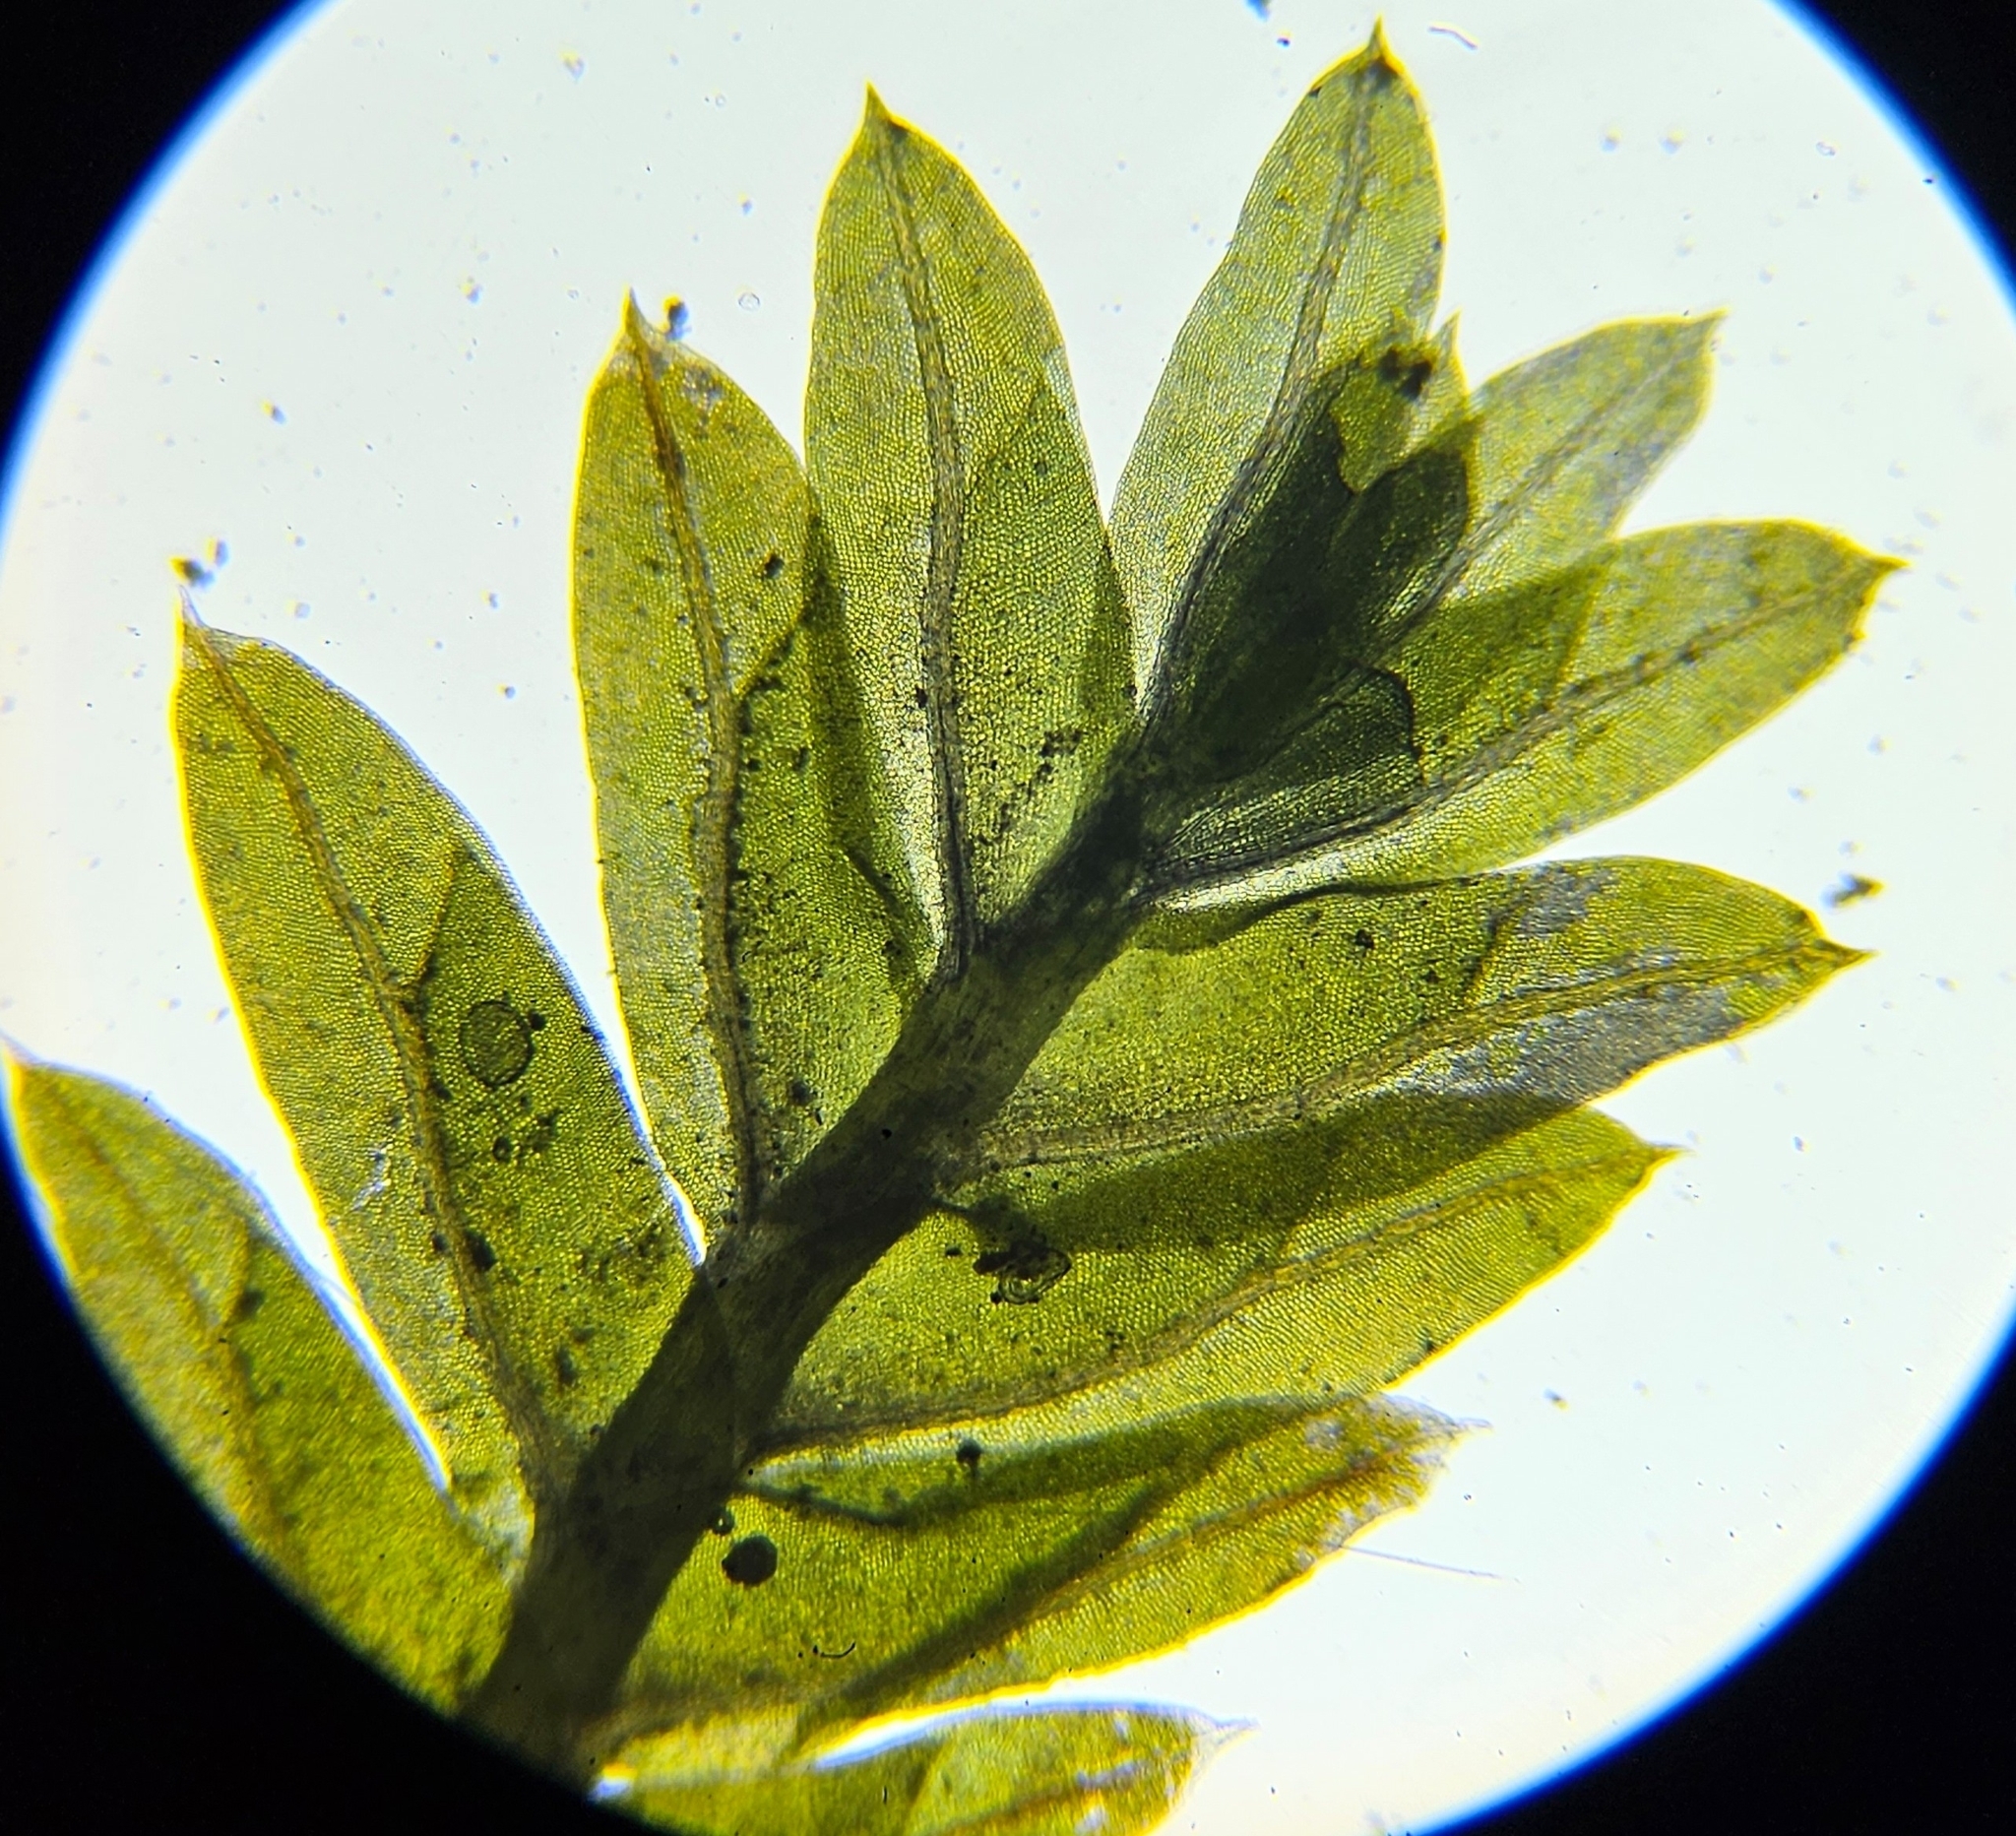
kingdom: Plantae
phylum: Bryophyta
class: Bryopsida
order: Dicranales
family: Fissidentaceae
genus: Fissidens
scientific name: Fissidens taxifolius
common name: Yew-leaved pocket moss
